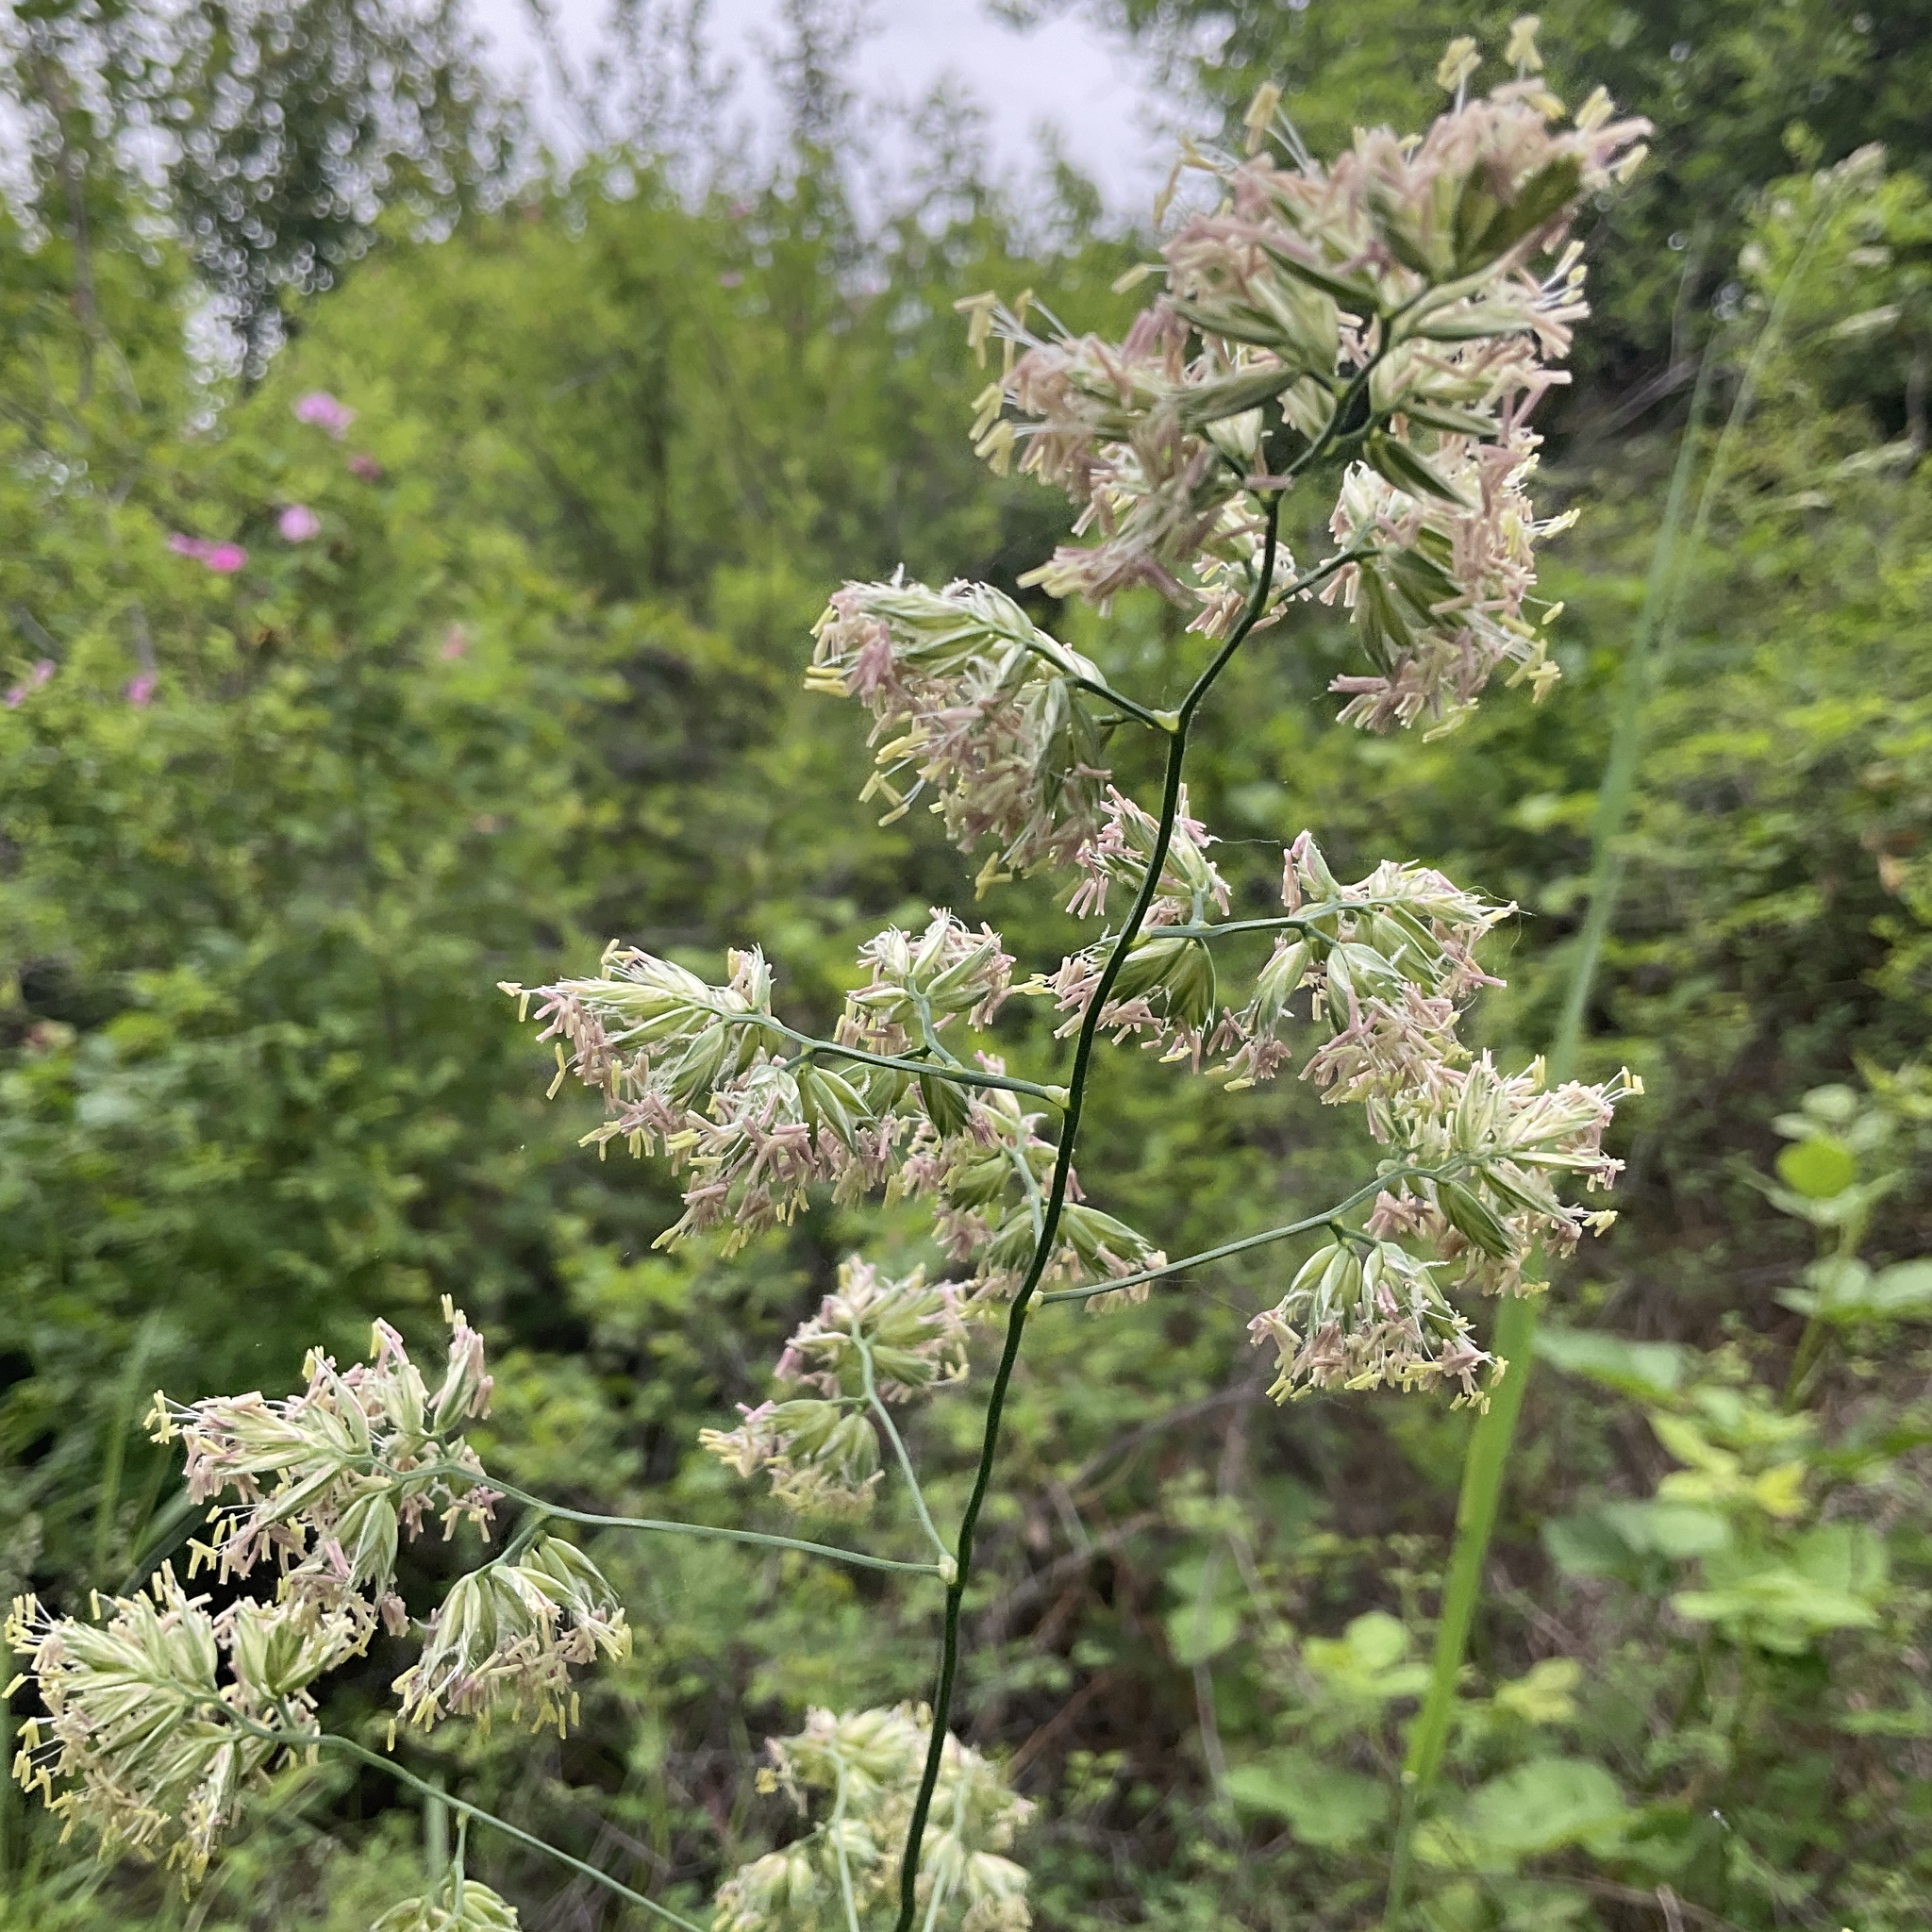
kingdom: Plantae
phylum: Tracheophyta
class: Liliopsida
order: Poales
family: Poaceae
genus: Dactylis
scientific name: Dactylis glomerata
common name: Orchardgrass
